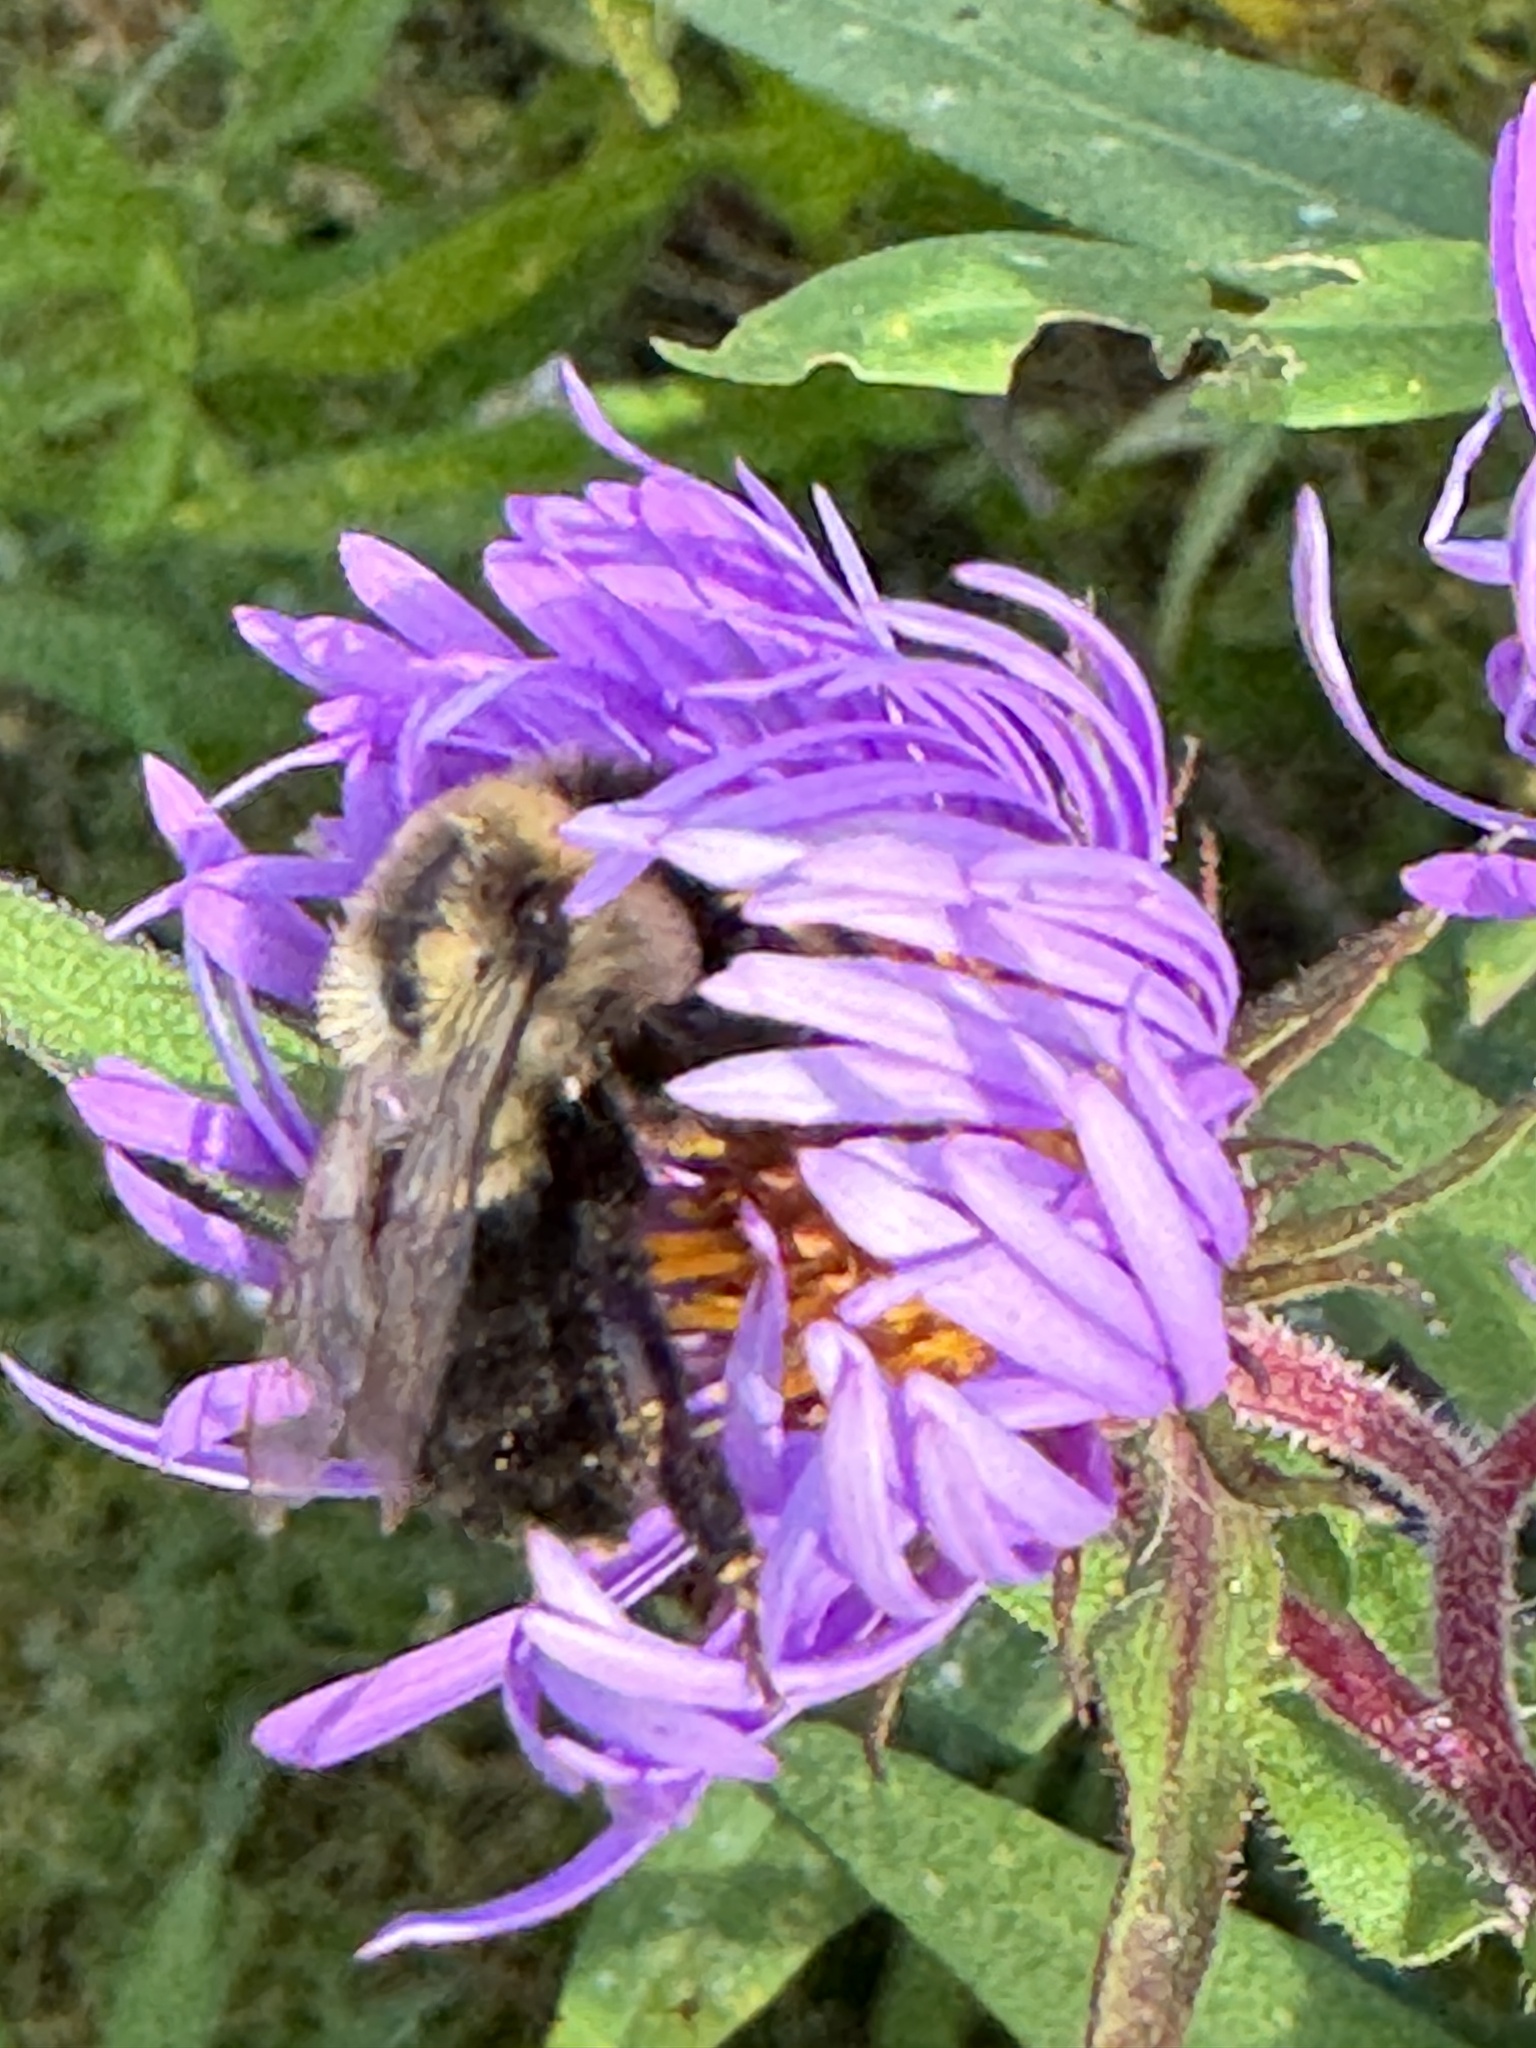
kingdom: Animalia
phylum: Arthropoda
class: Insecta
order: Hymenoptera
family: Apidae
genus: Bombus
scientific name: Bombus impatiens
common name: Common eastern bumble bee
